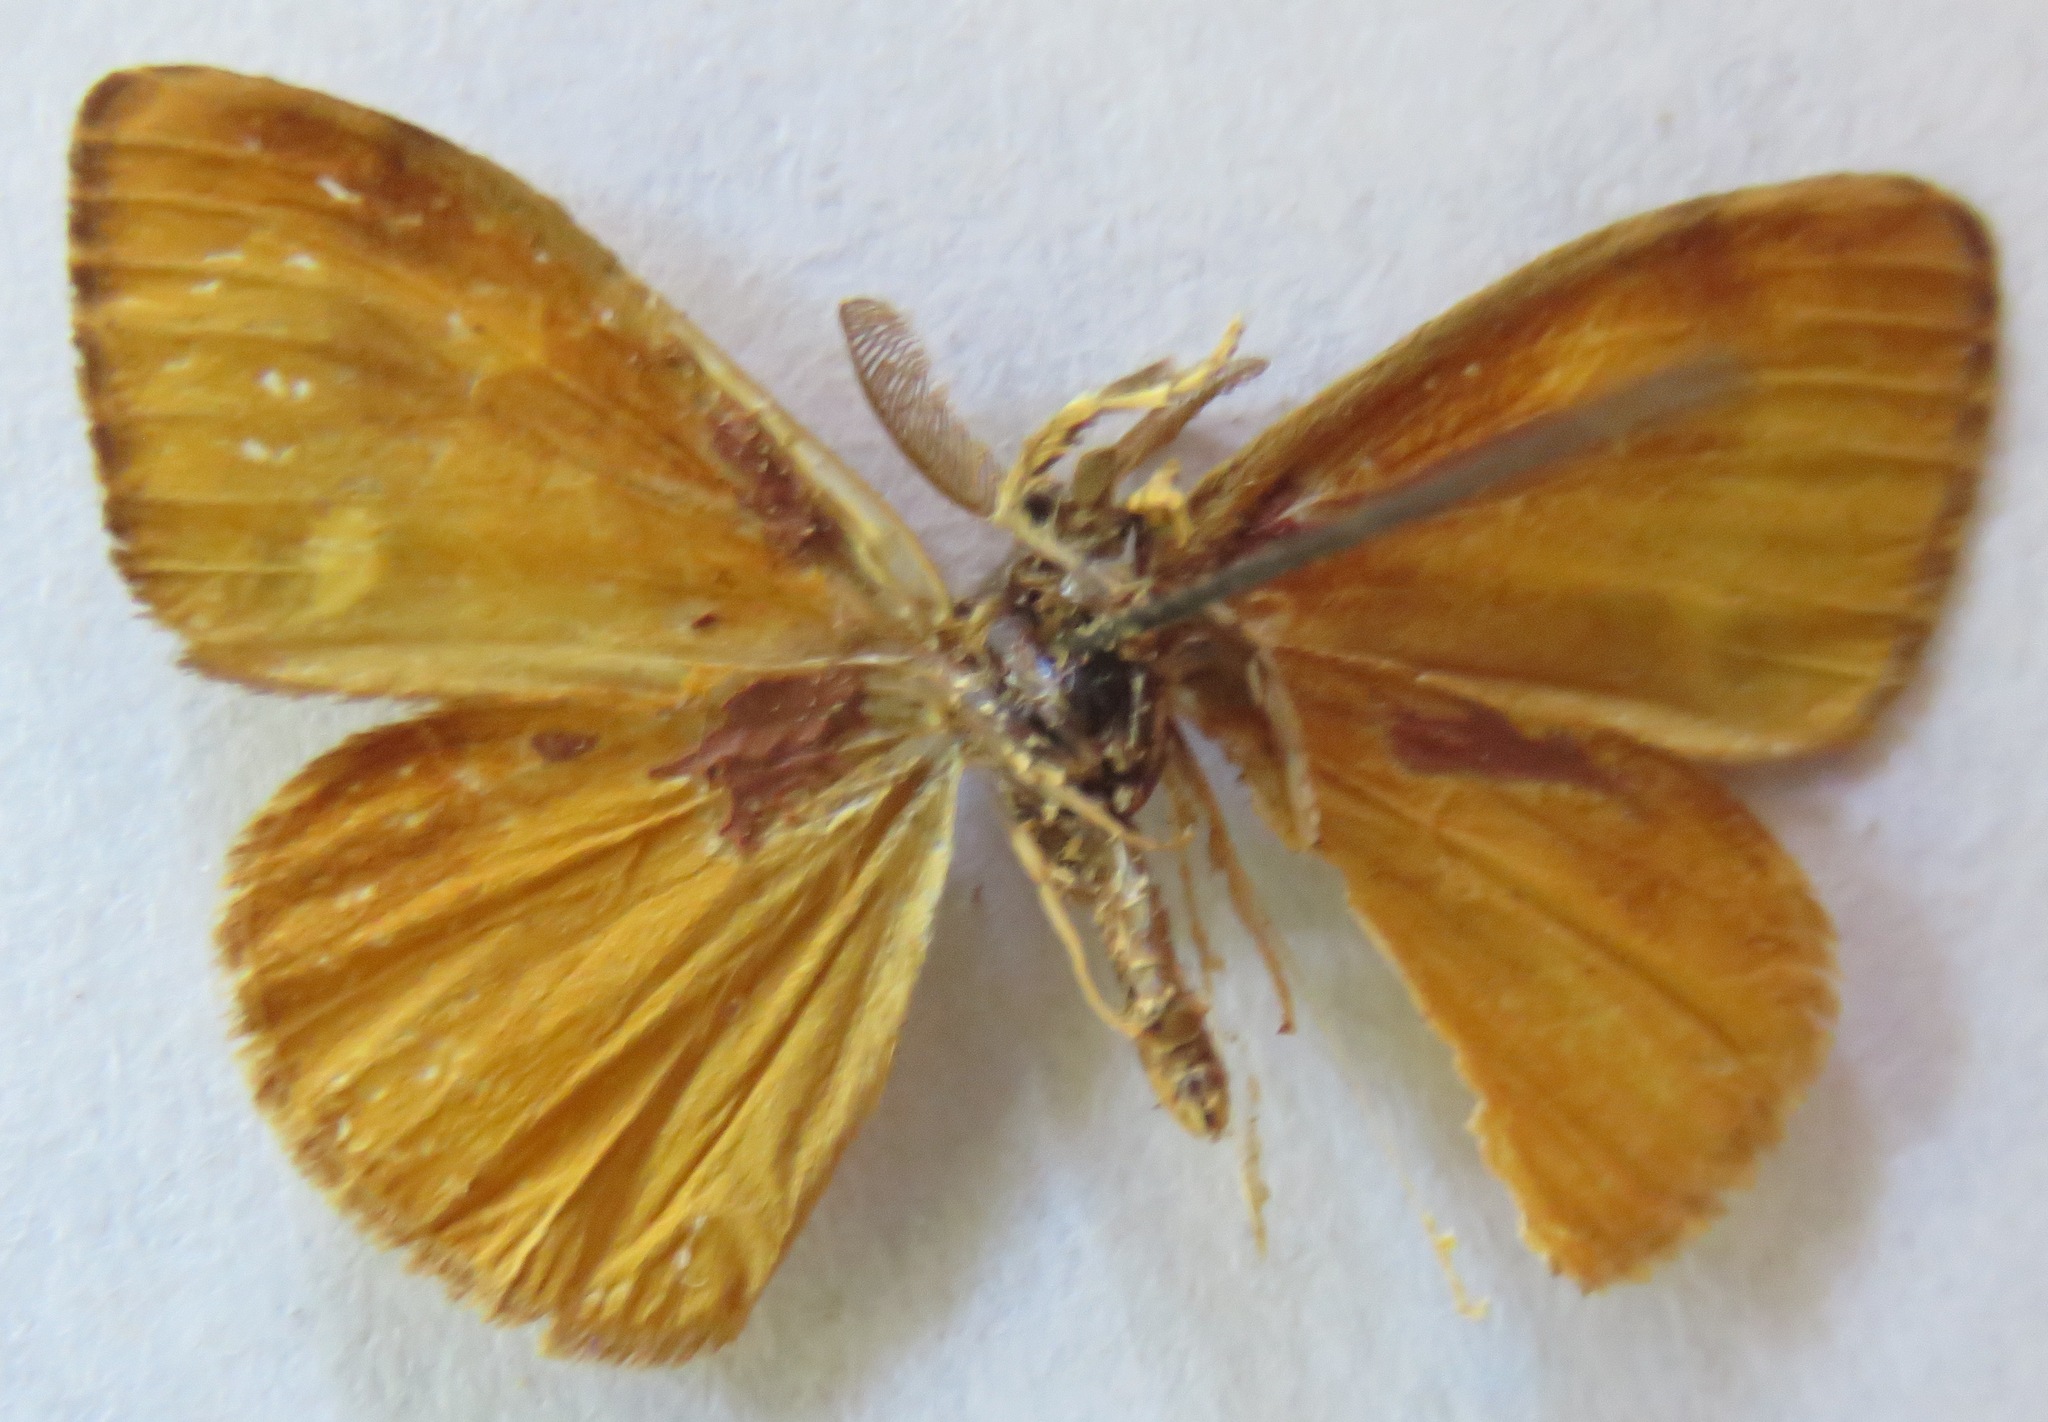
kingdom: Animalia
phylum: Arthropoda
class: Insecta
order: Lepidoptera
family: Erebidae
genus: Orgyia
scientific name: Orgyia antiqua
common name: Vapourer
